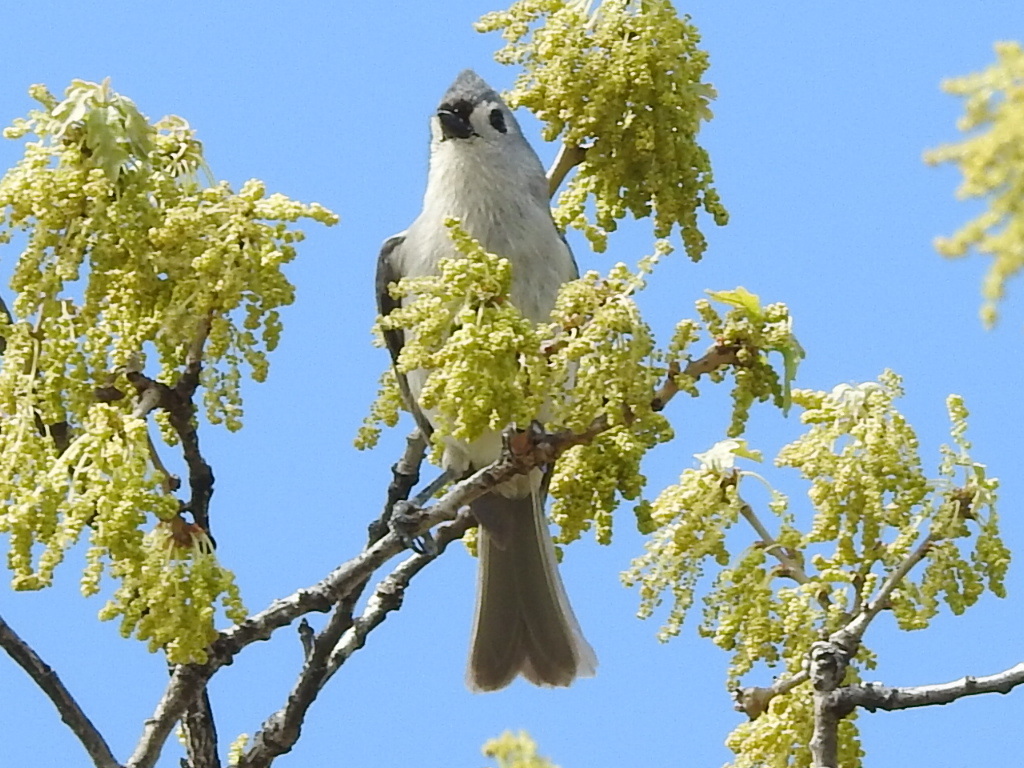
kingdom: Animalia
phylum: Chordata
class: Aves
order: Passeriformes
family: Paridae
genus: Baeolophus
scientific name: Baeolophus bicolor
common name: Tufted titmouse
